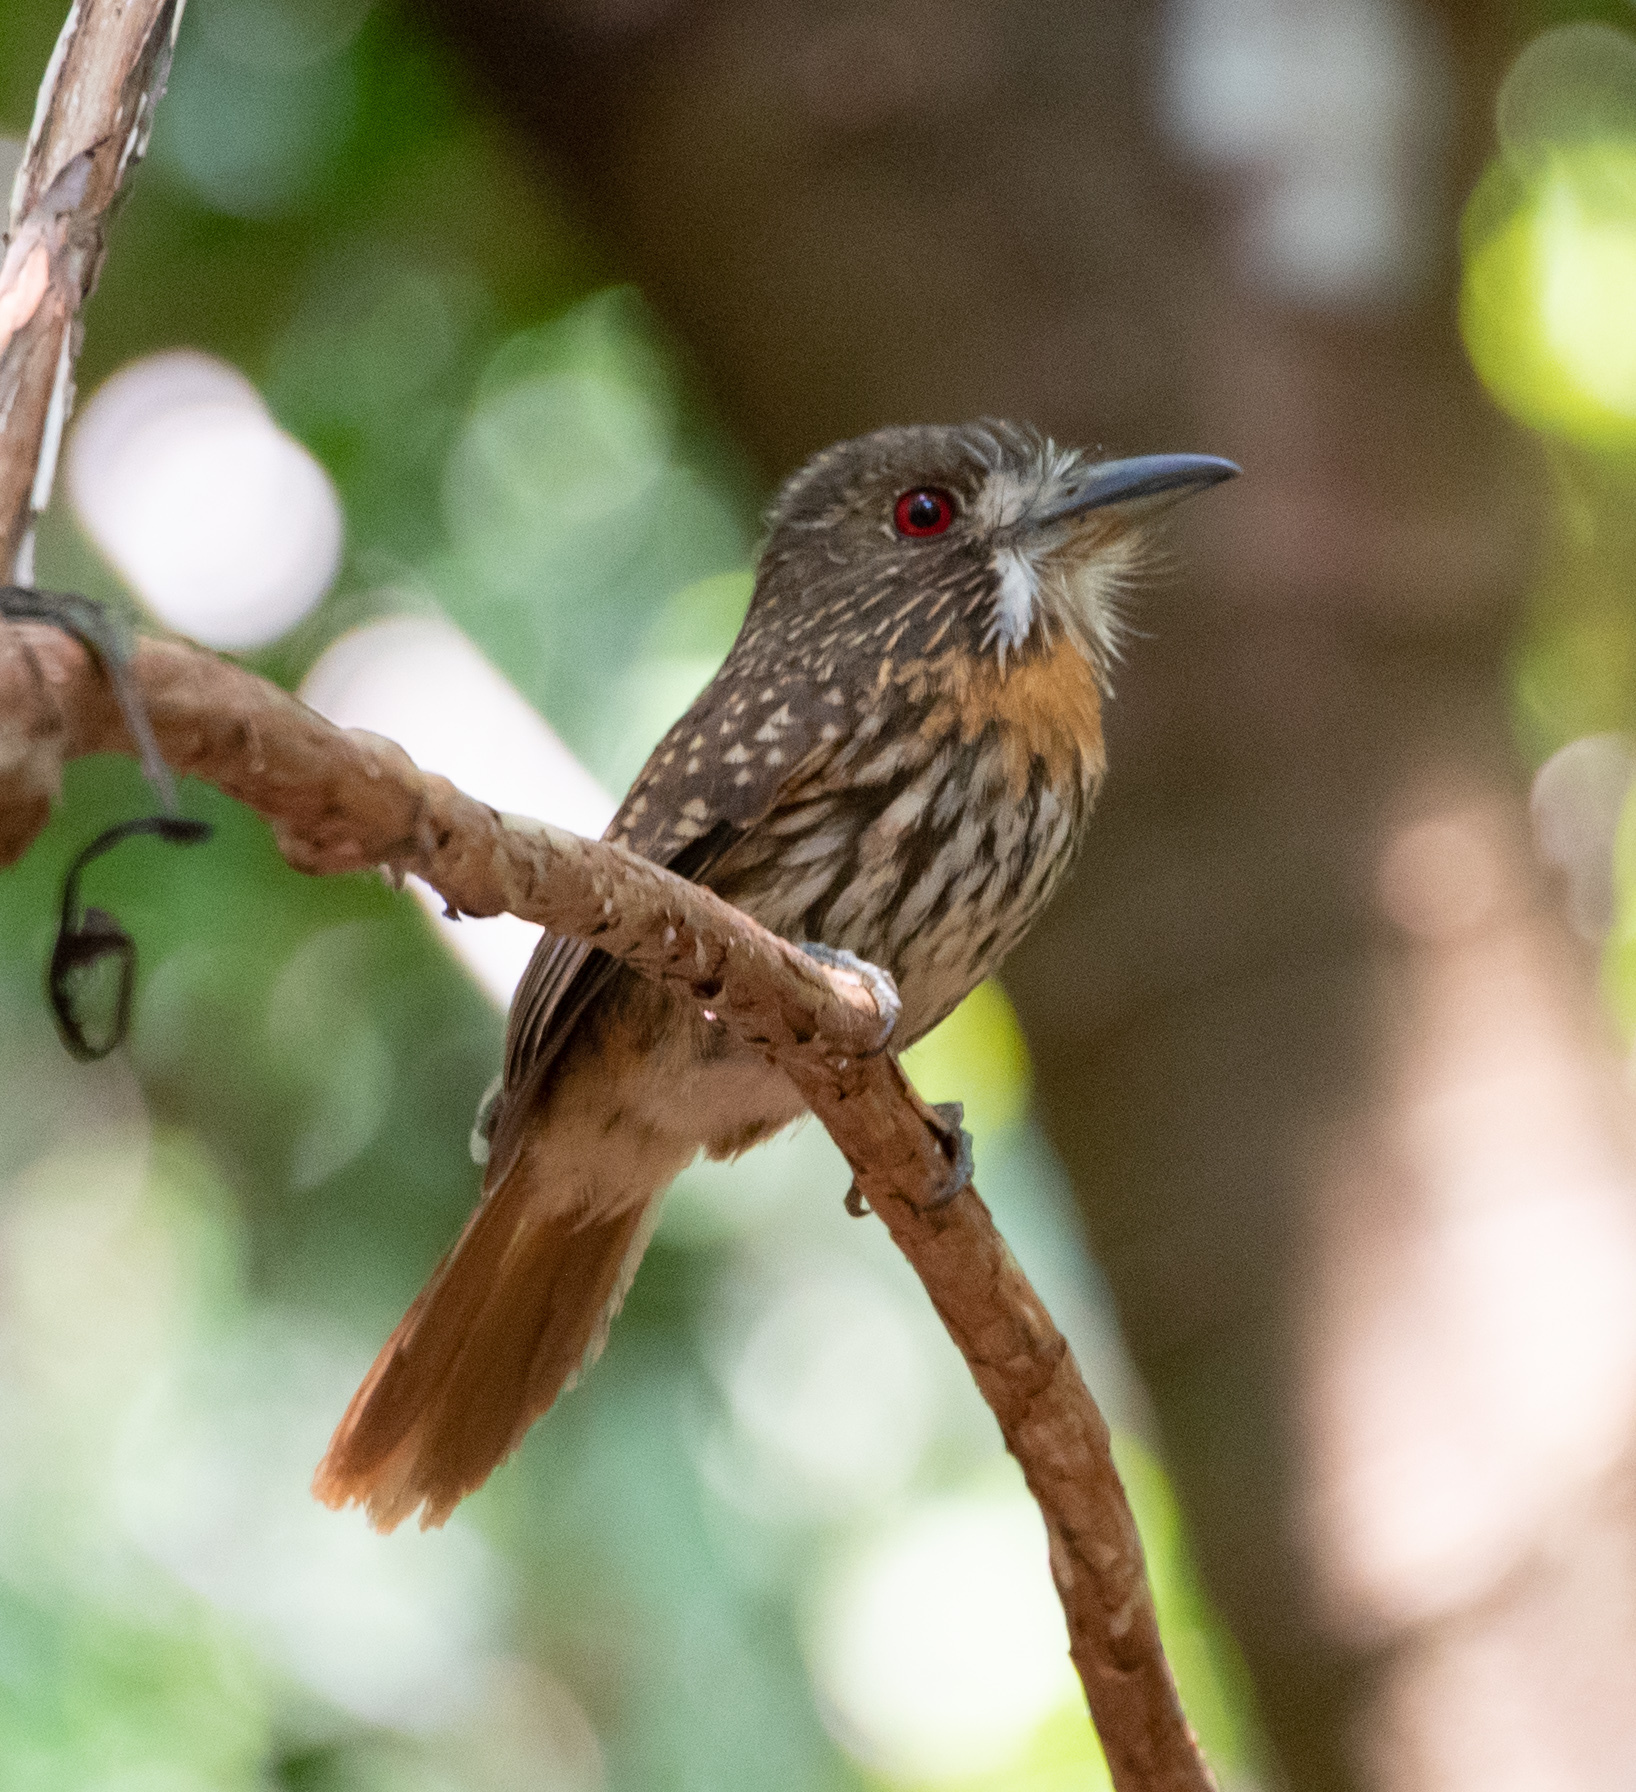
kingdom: Animalia
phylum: Chordata
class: Aves
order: Piciformes
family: Bucconidae
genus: Malacoptila
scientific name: Malacoptila panamensis
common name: White-whiskered puffbird
